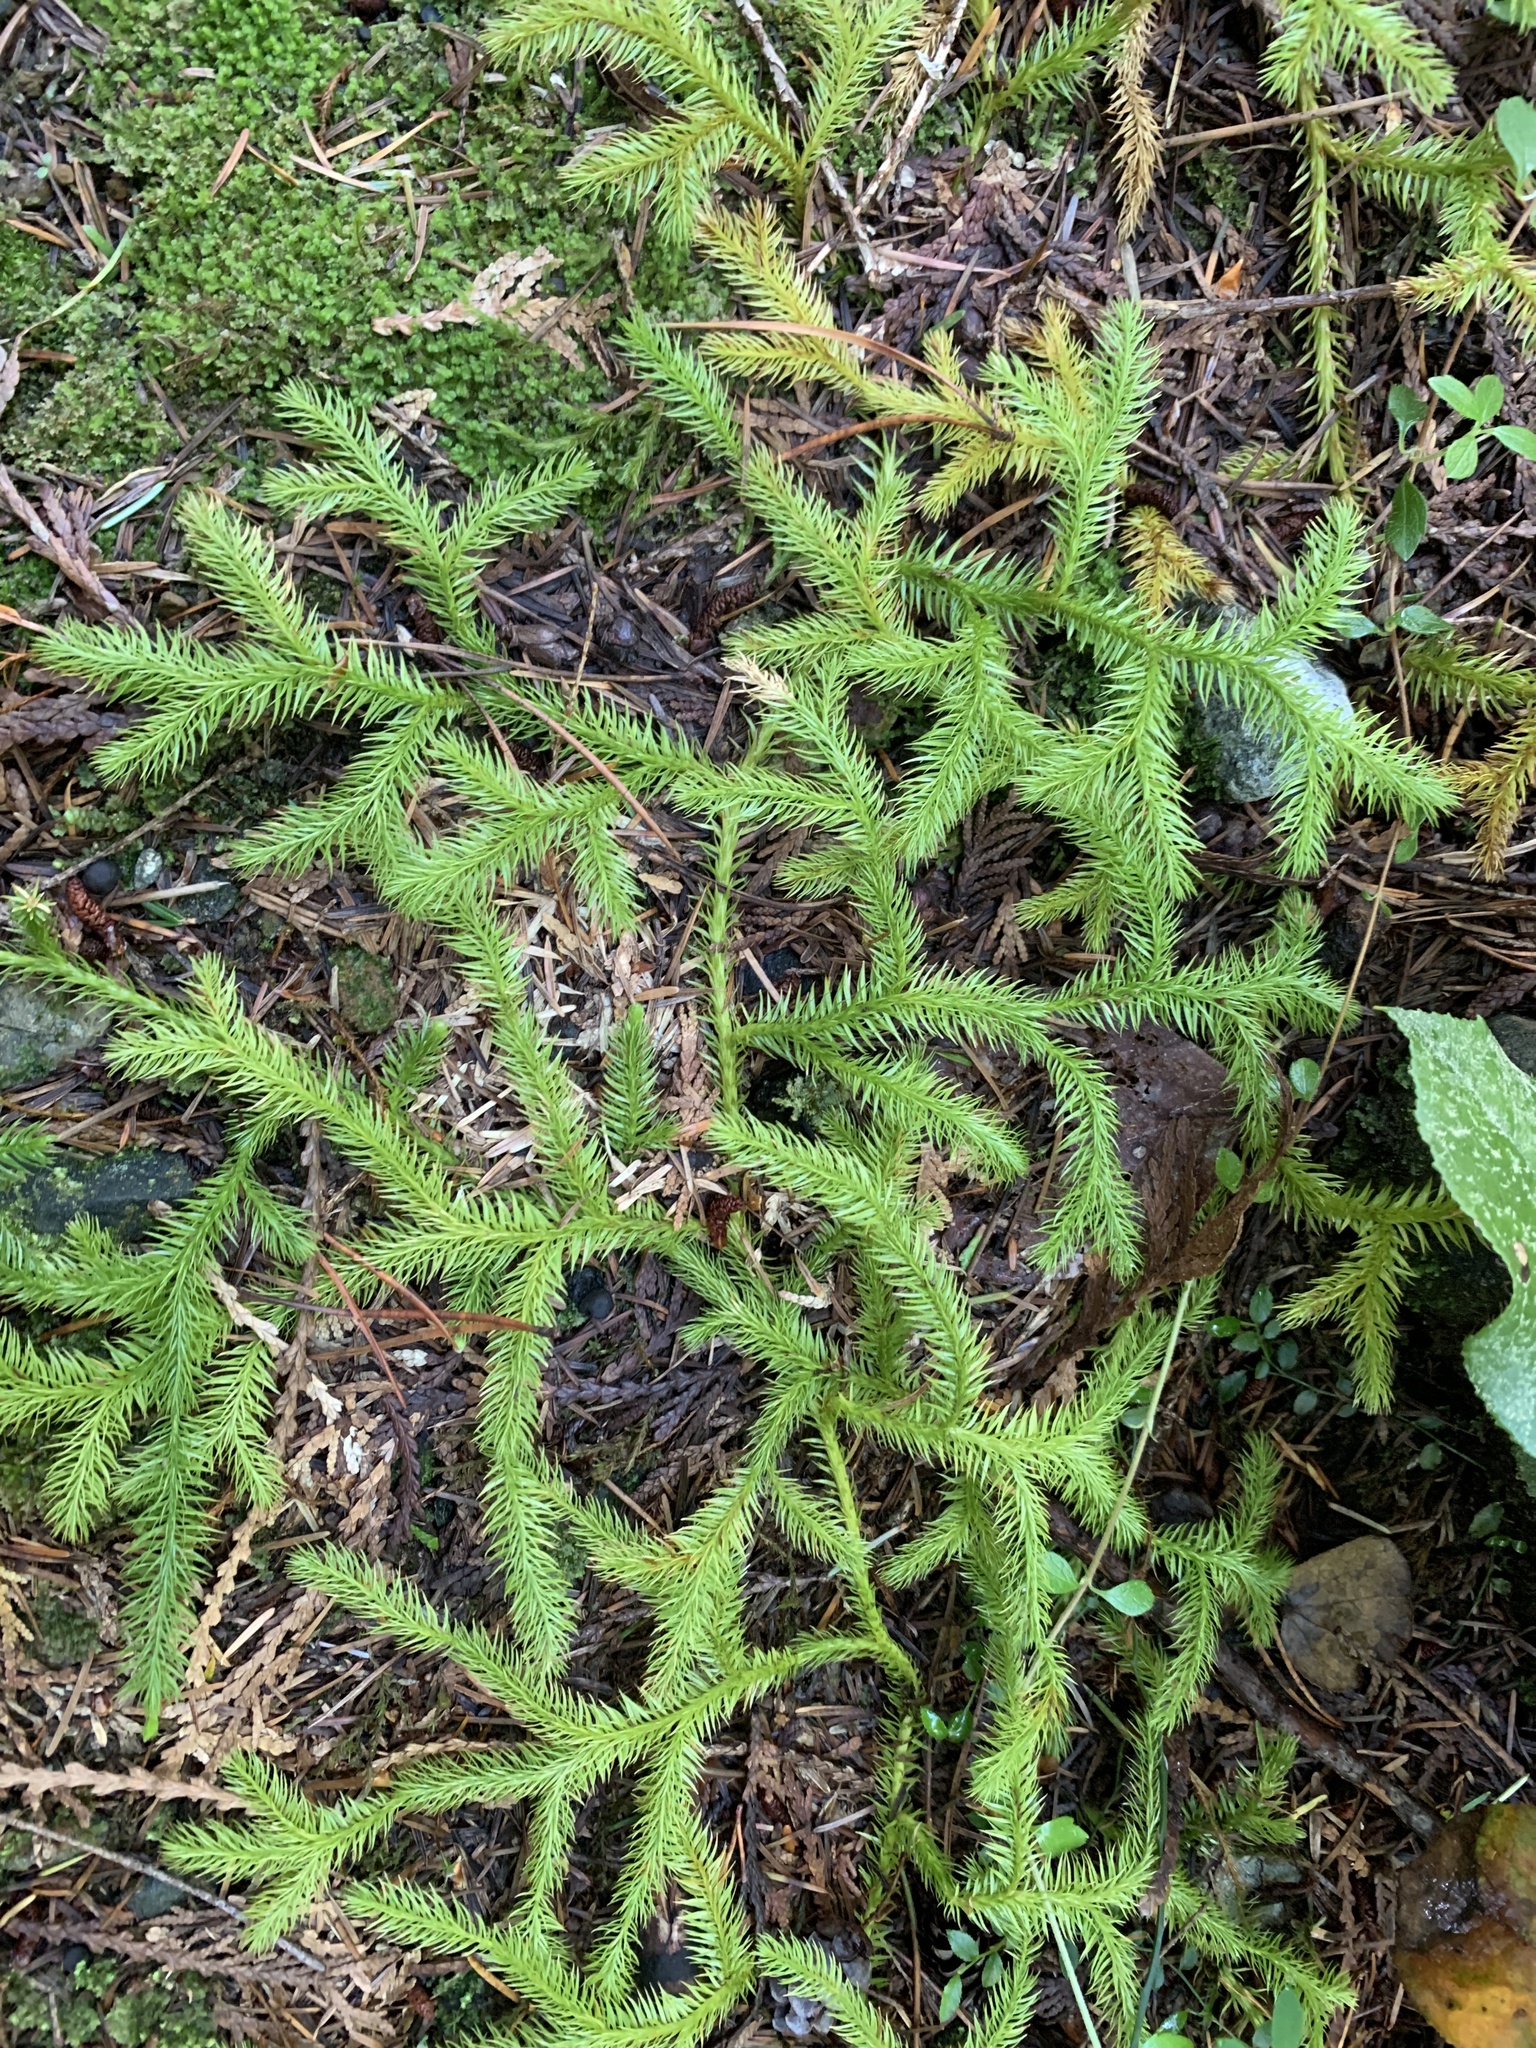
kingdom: Plantae
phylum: Tracheophyta
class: Lycopodiopsida
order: Lycopodiales
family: Lycopodiaceae
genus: Lycopodium
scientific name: Lycopodium clavatum
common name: Stag's-horn clubmoss
